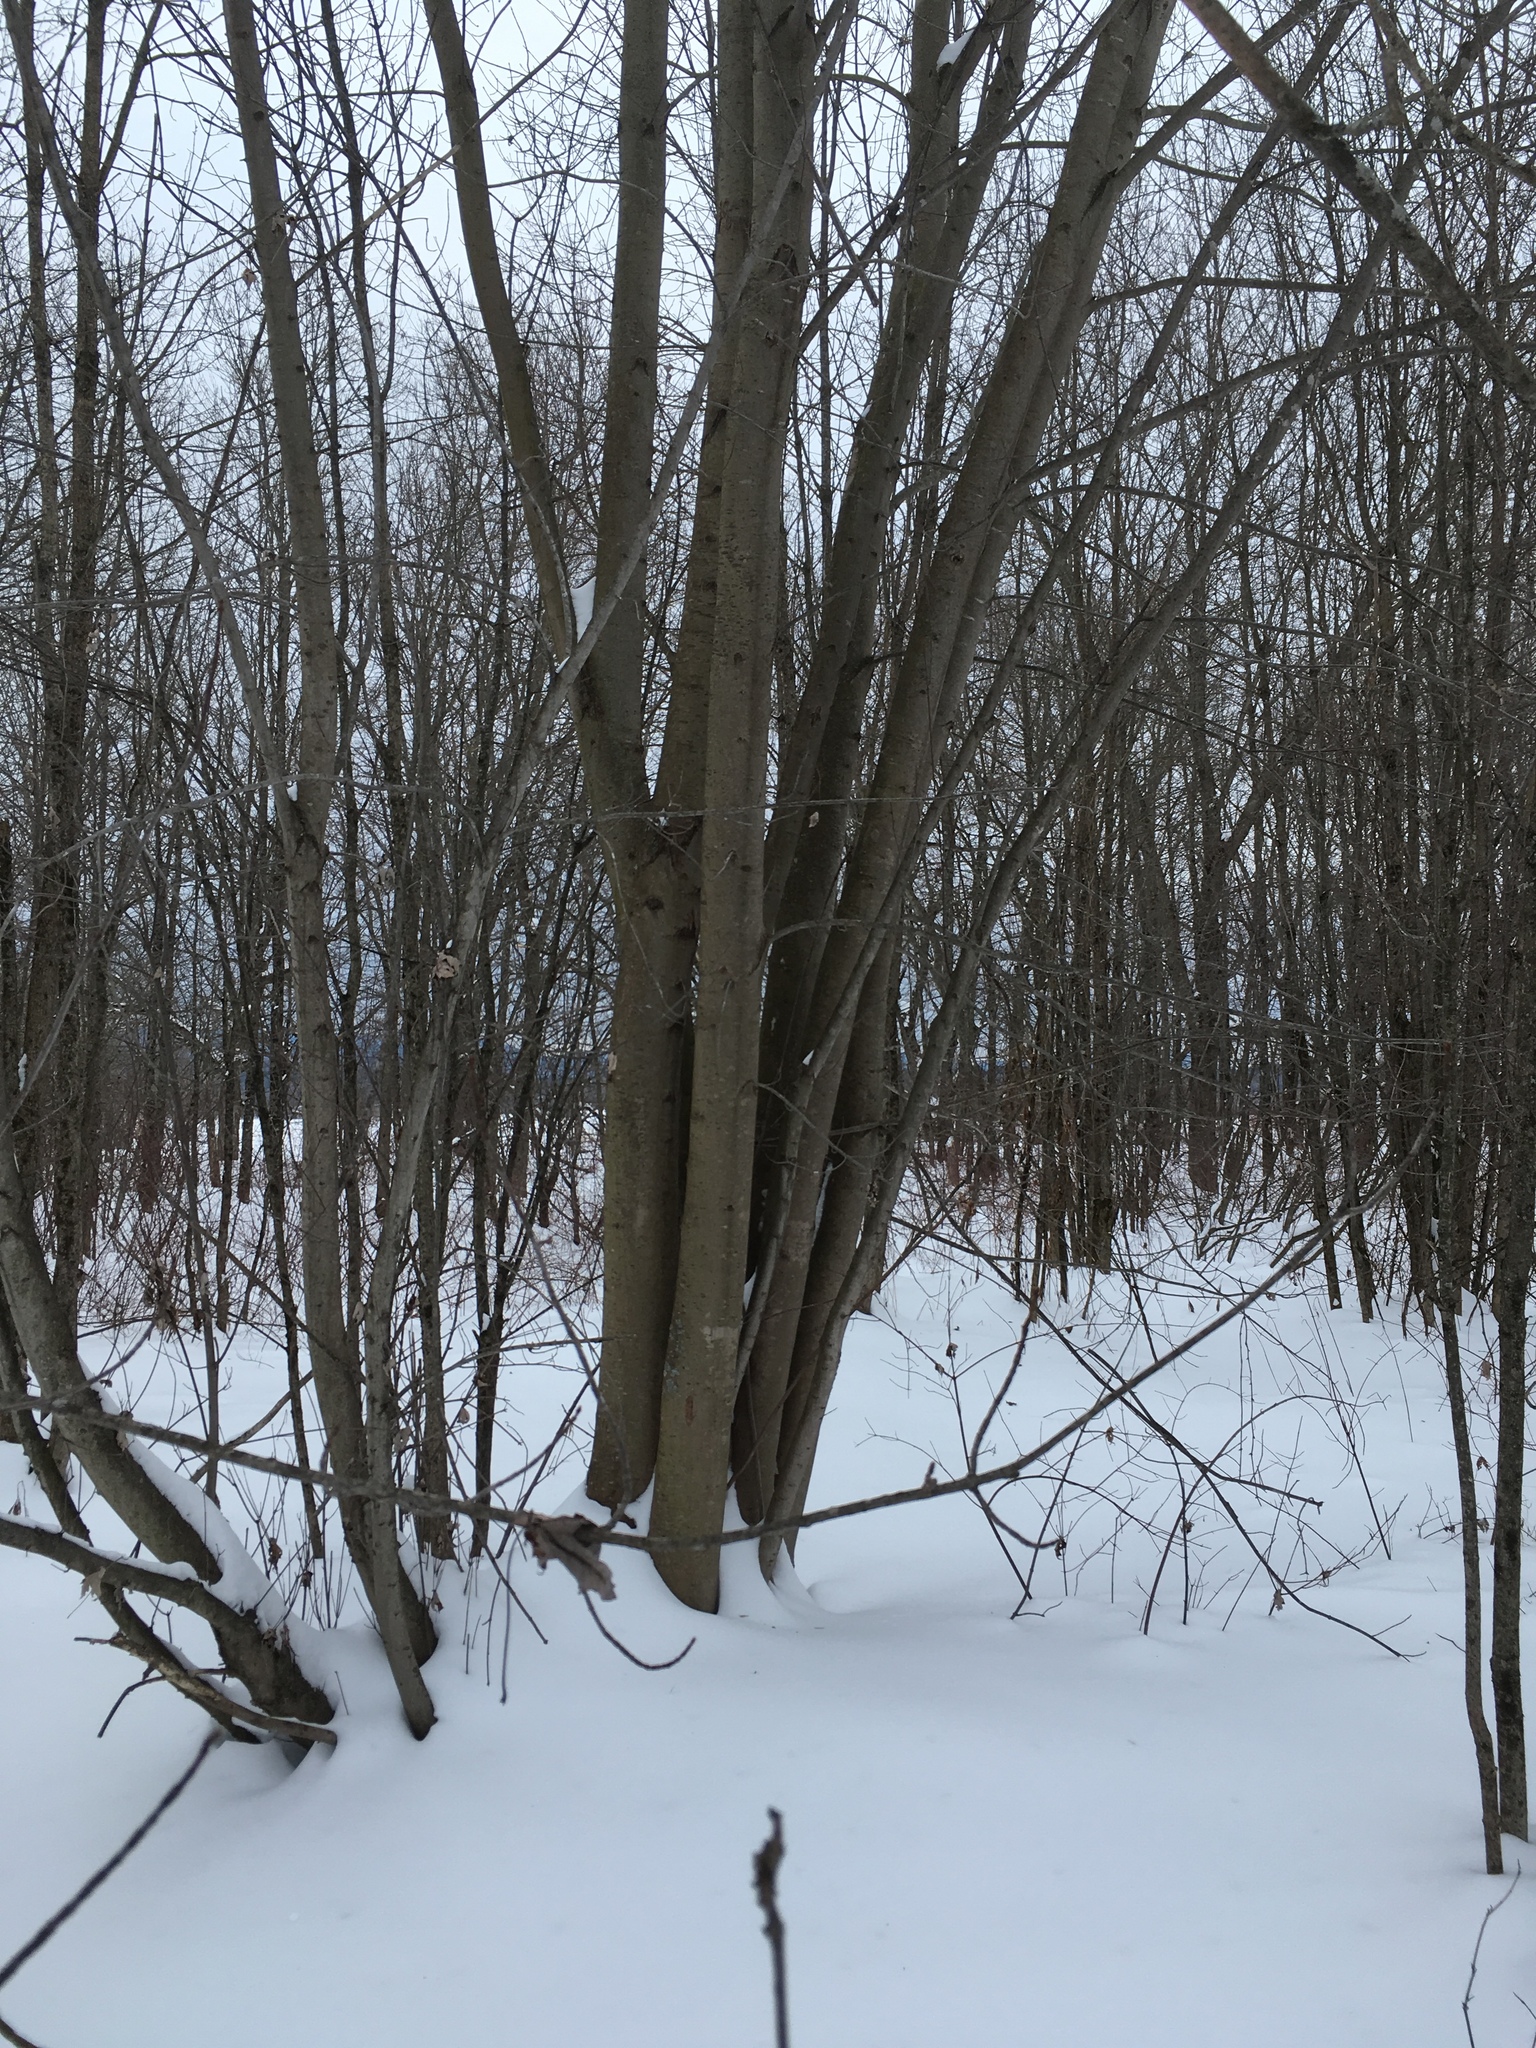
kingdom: Plantae
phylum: Tracheophyta
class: Magnoliopsida
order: Sapindales
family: Sapindaceae
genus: Acer
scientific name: Acer rubrum
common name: Red maple
